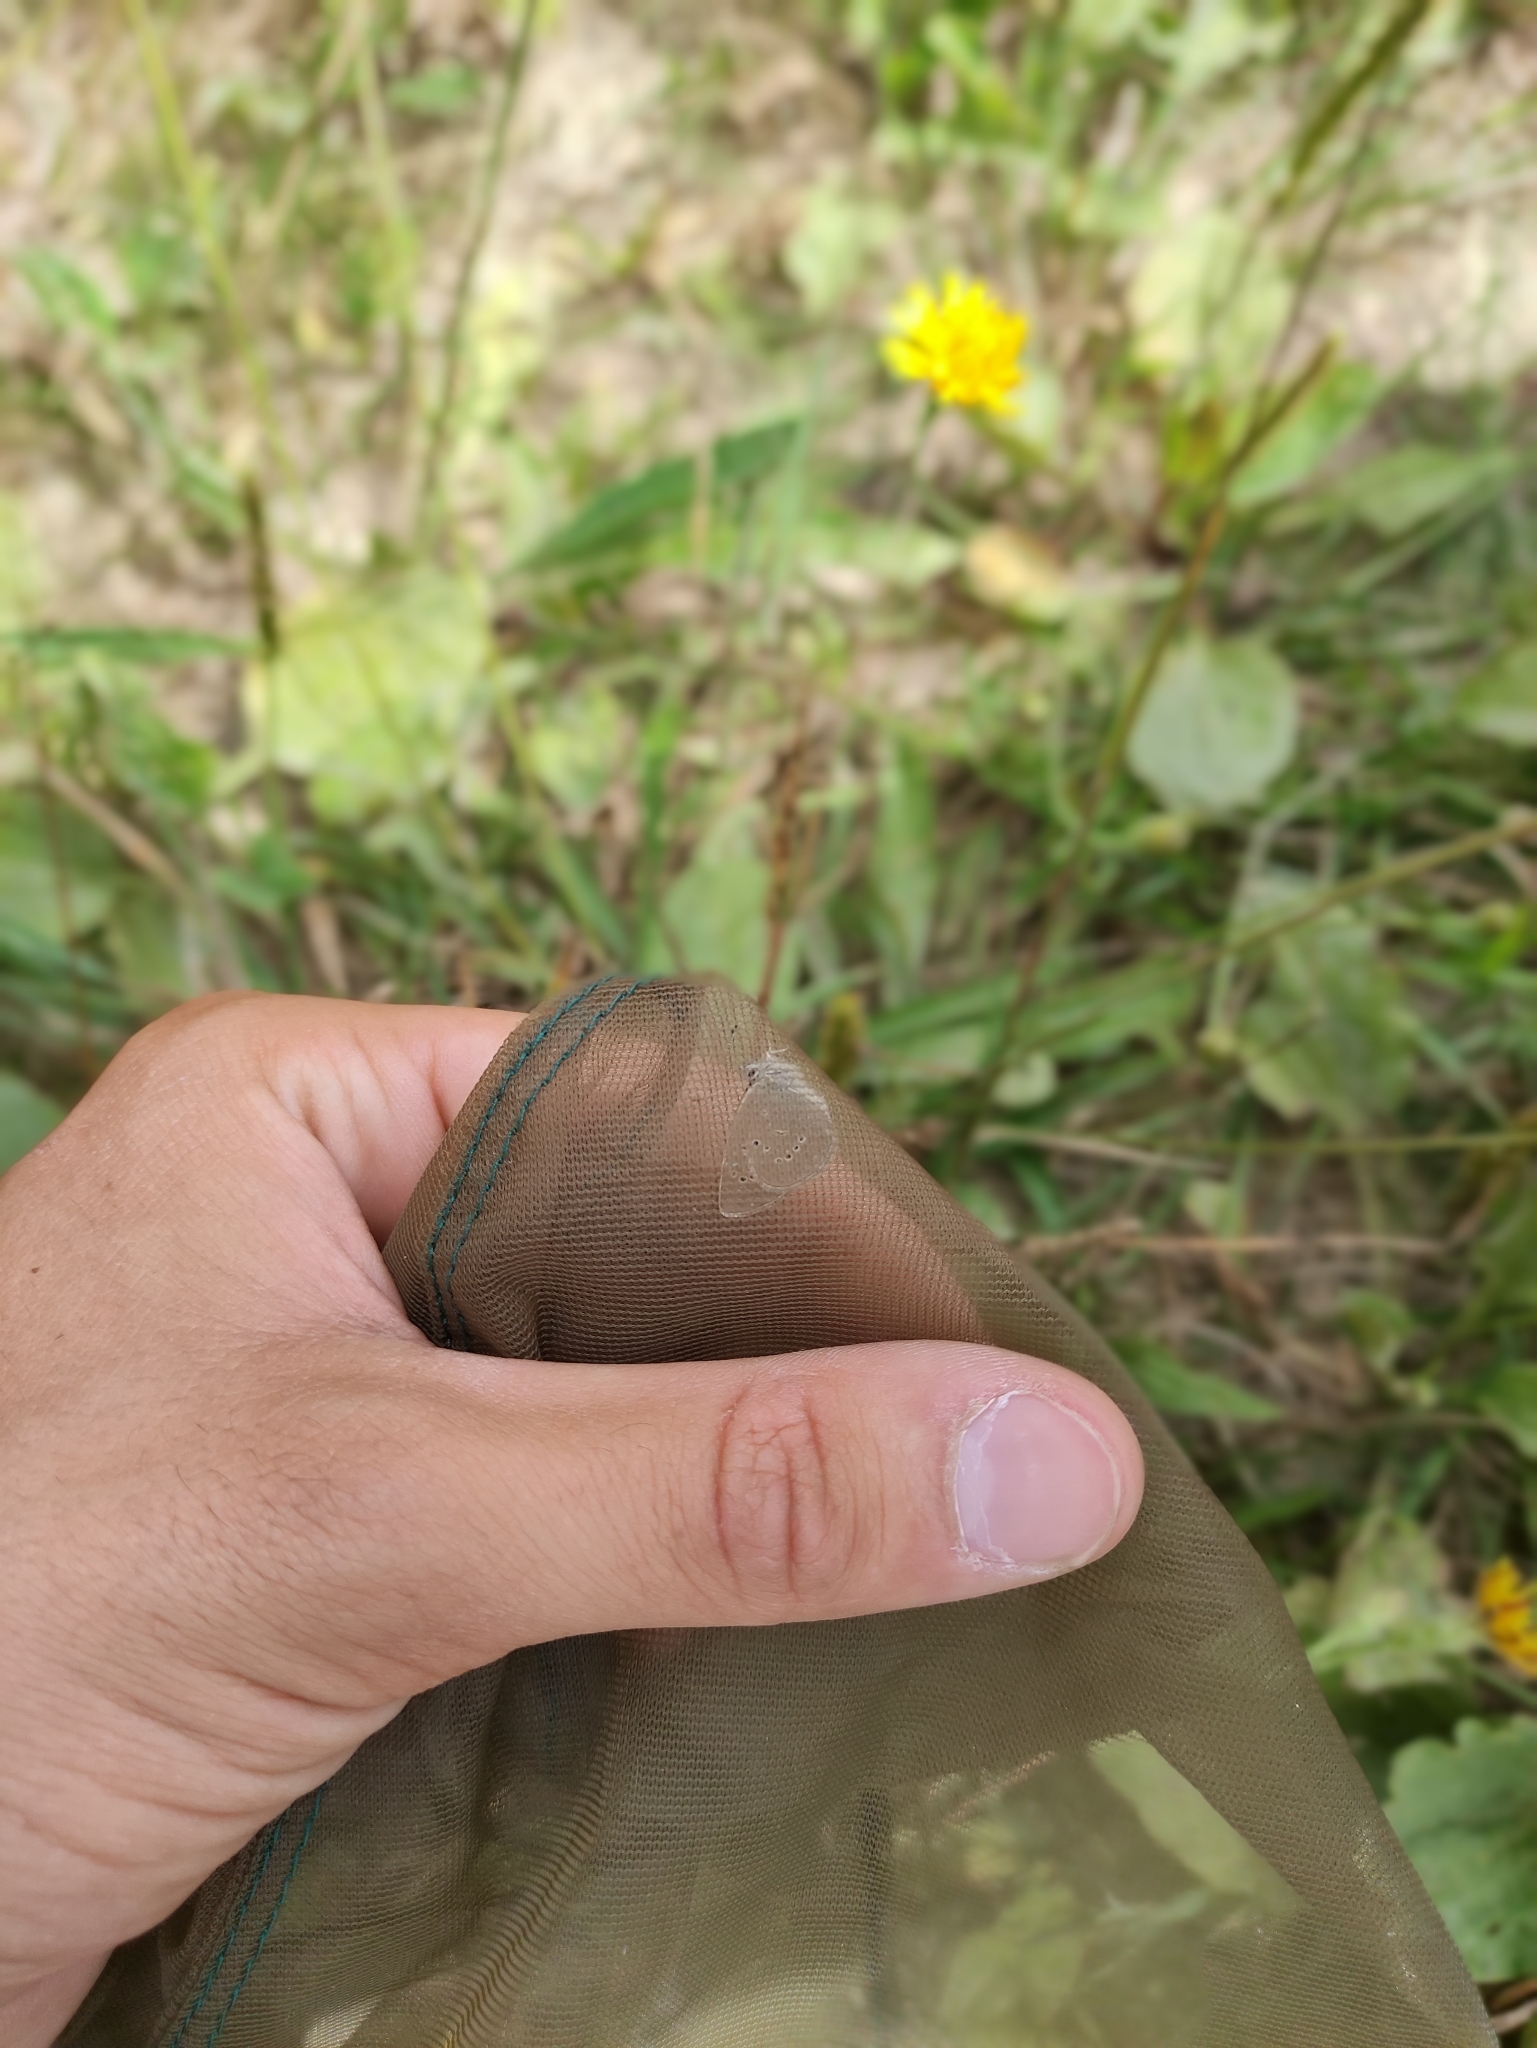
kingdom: Animalia
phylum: Arthropoda
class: Insecta
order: Lepidoptera
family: Lycaenidae
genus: Cyaniris
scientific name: Cyaniris semiargus
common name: Mazarine blue
